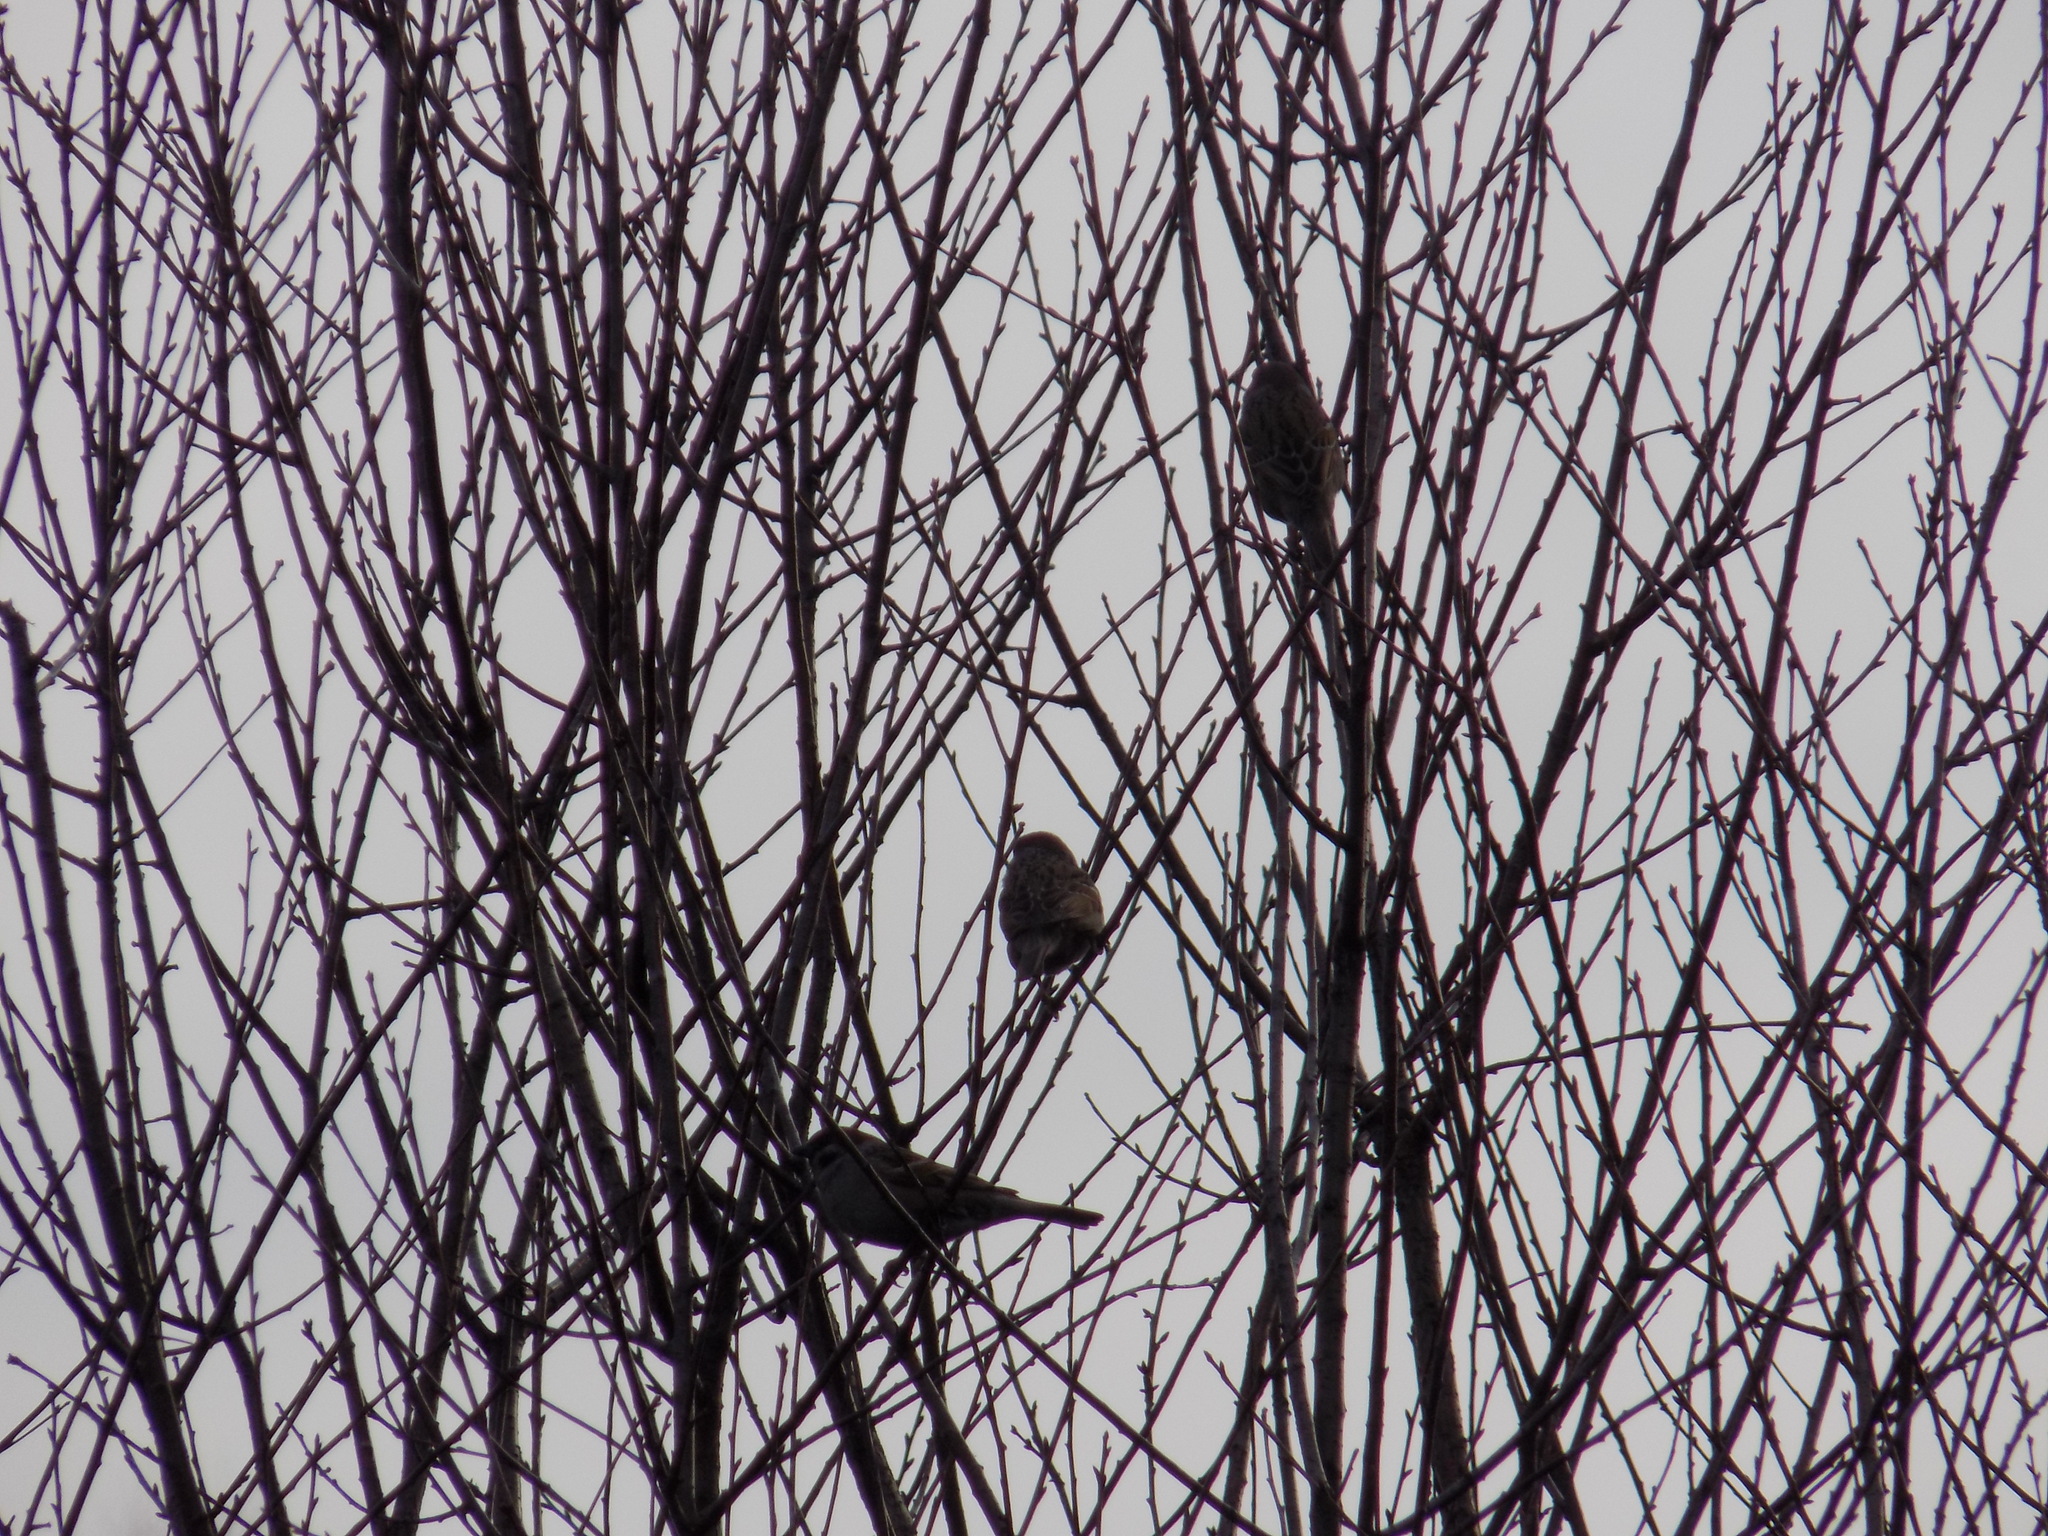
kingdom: Animalia
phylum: Chordata
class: Aves
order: Passeriformes
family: Passeridae
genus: Passer
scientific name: Passer montanus
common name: Eurasian tree sparrow
